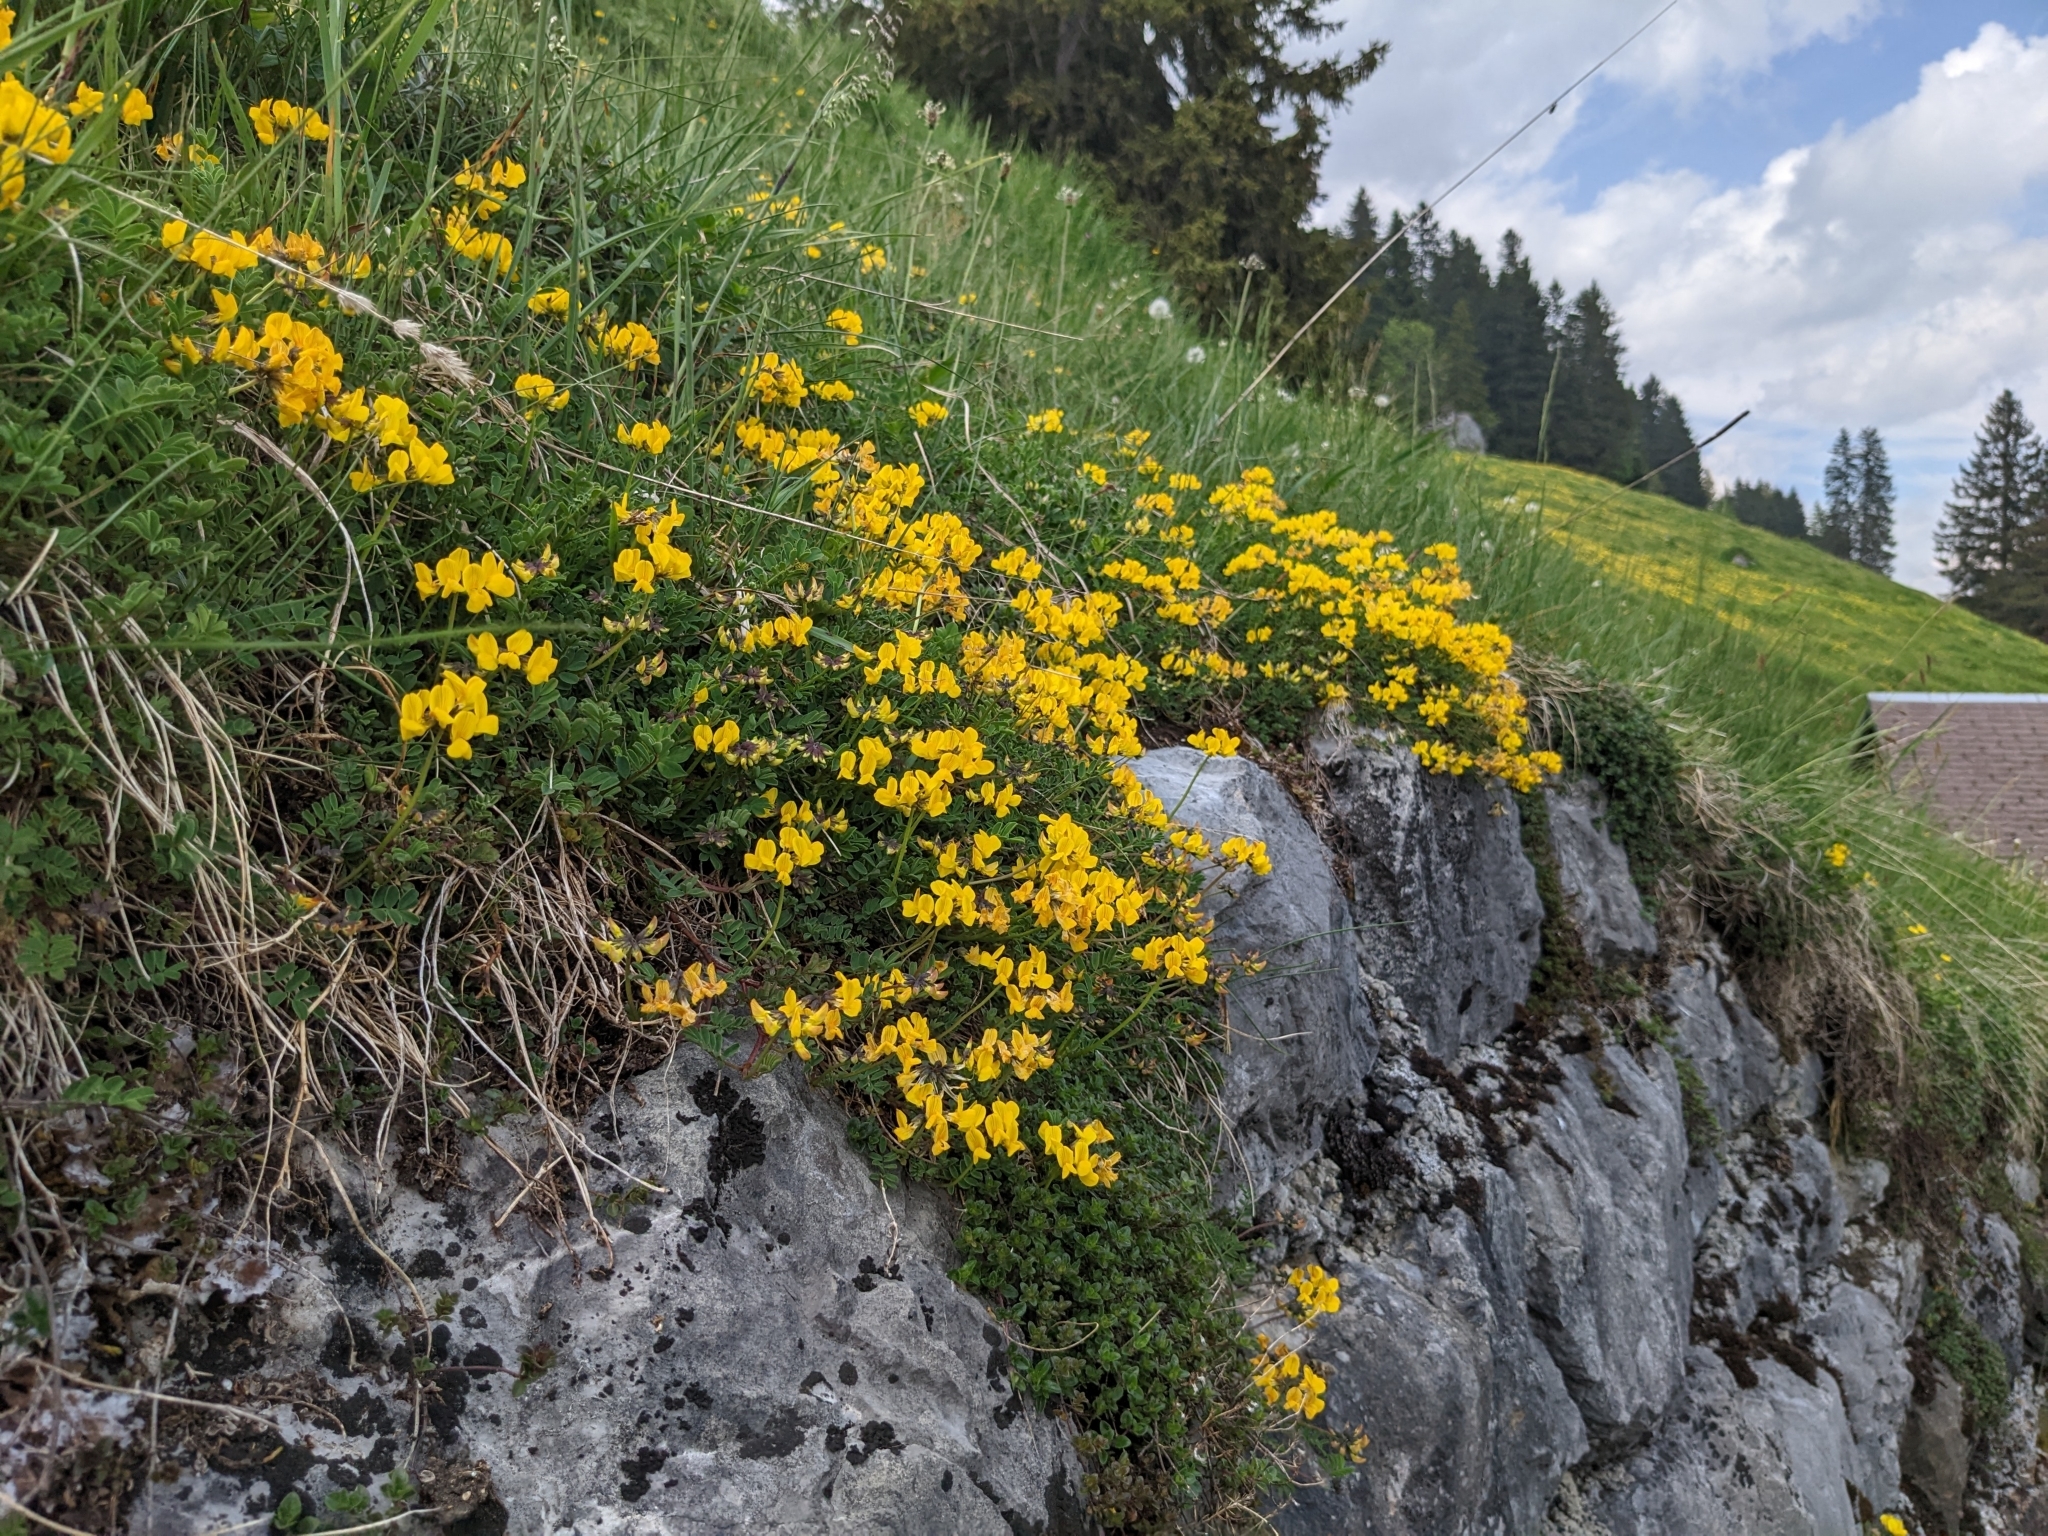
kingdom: Plantae
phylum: Tracheophyta
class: Magnoliopsida
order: Fabales
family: Fabaceae
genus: Hippocrepis
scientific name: Hippocrepis comosa
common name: Horseshoe vetch
